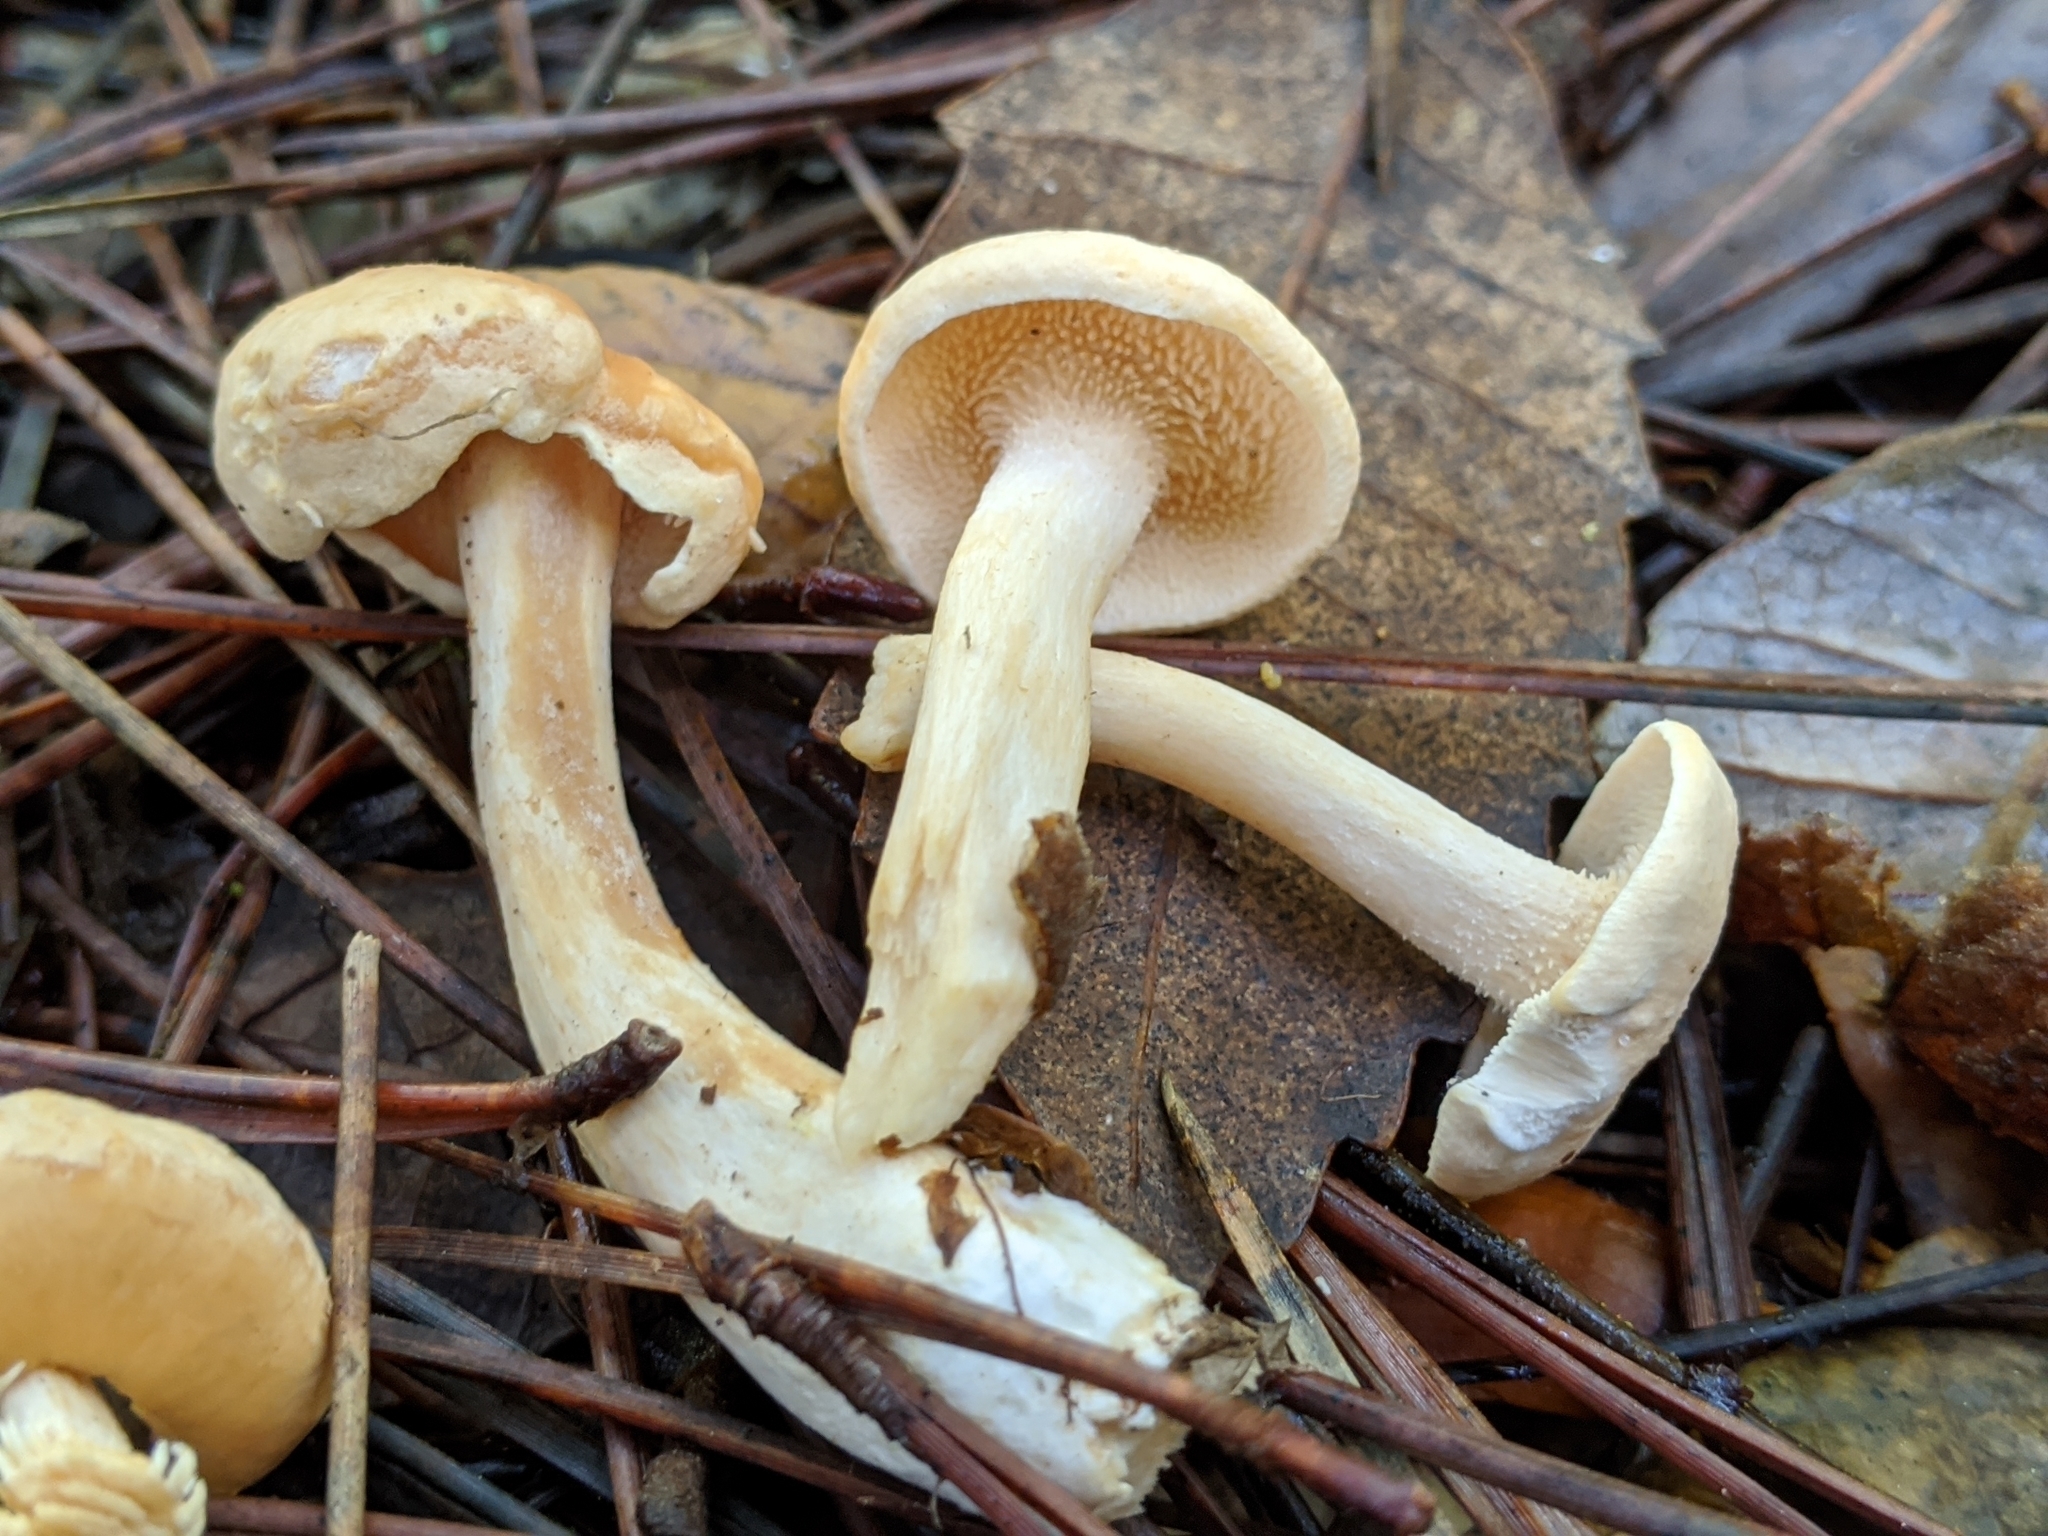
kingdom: Fungi
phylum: Basidiomycota
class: Agaricomycetes
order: Cantharellales
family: Hydnaceae
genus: Hydnum
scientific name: Hydnum oregonense
